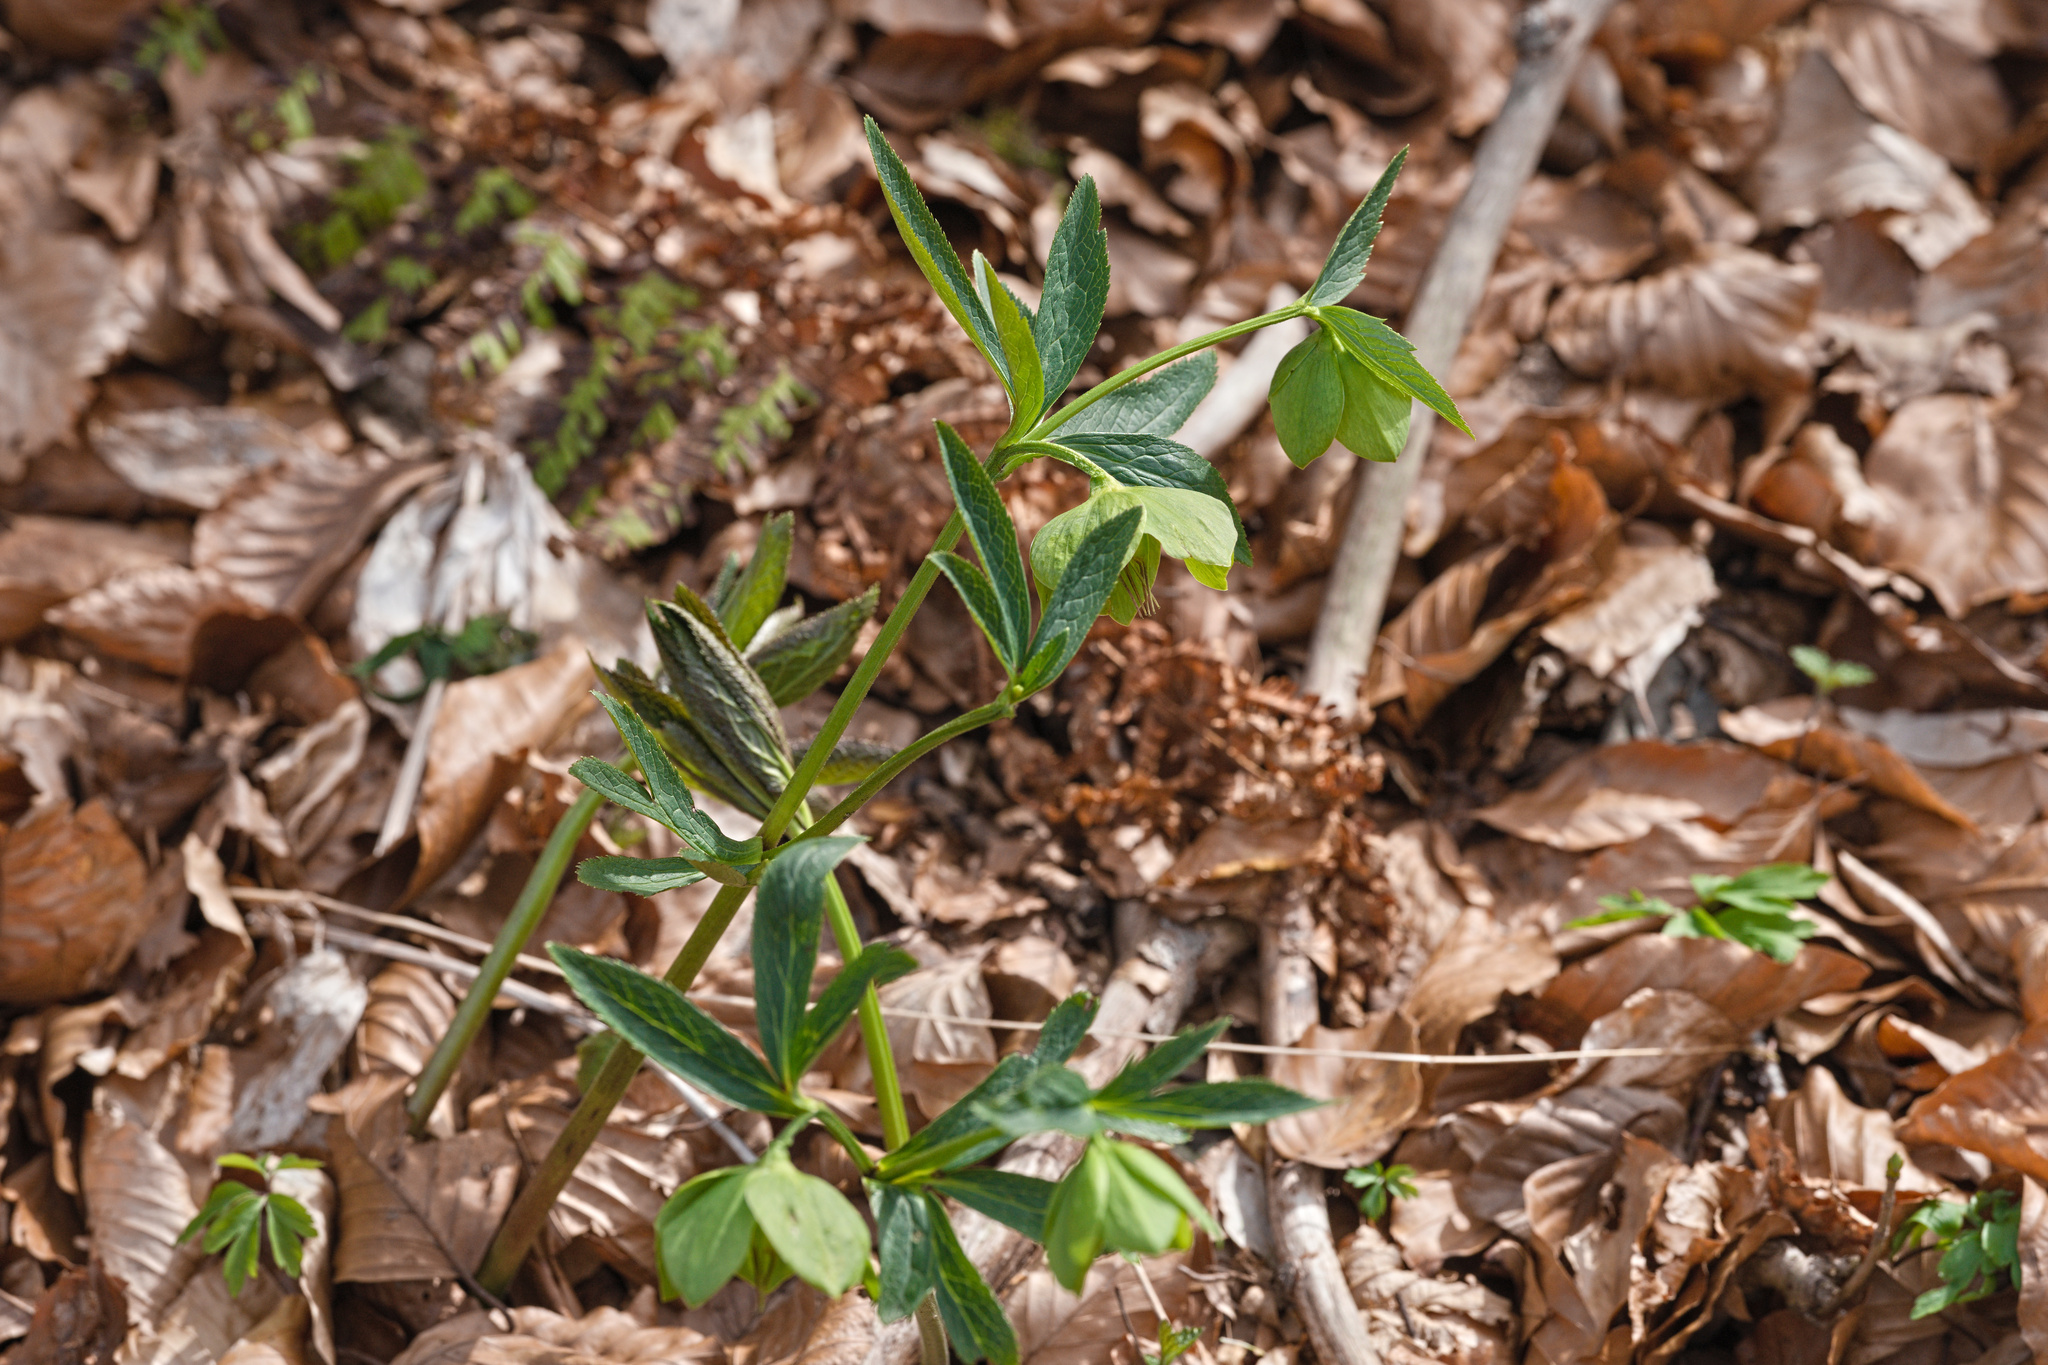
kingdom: Plantae
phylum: Tracheophyta
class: Magnoliopsida
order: Ranunculales
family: Ranunculaceae
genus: Helleborus
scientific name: Helleborus viridis
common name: Green hellebore
